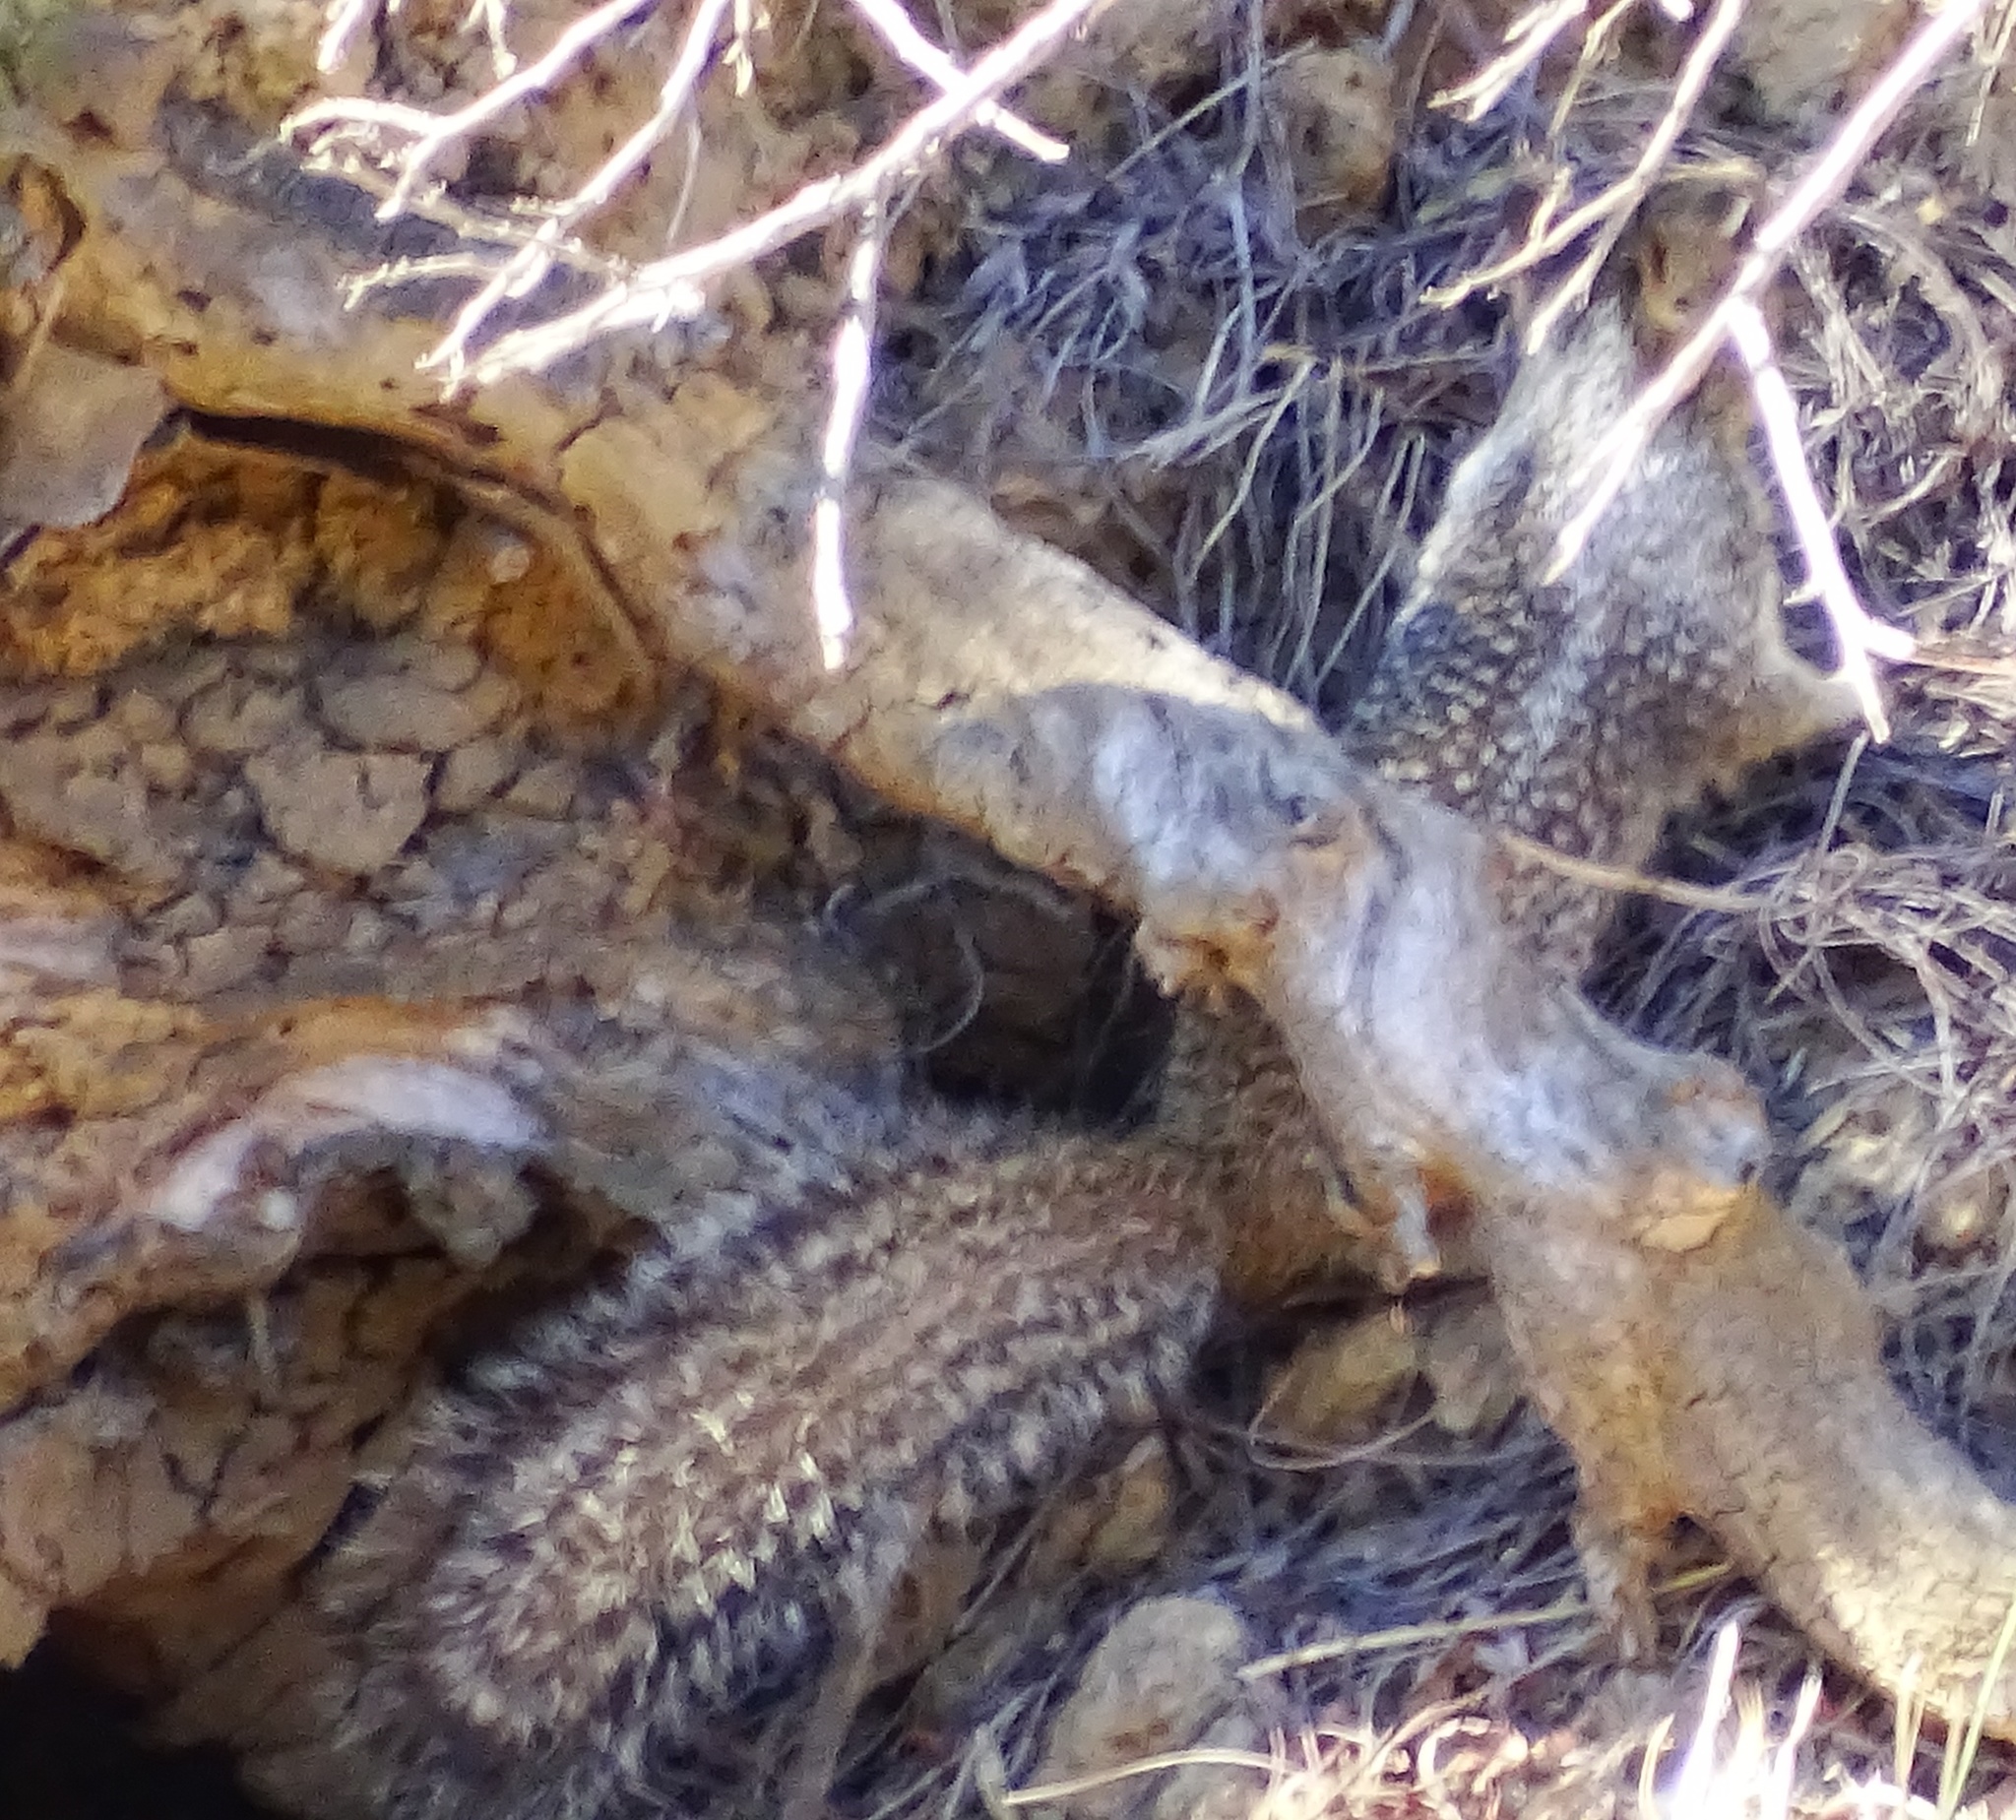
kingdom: Animalia
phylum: Chordata
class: Mammalia
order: Rodentia
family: Sciuridae
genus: Otospermophilus
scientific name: Otospermophilus beecheyi
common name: California ground squirrel
